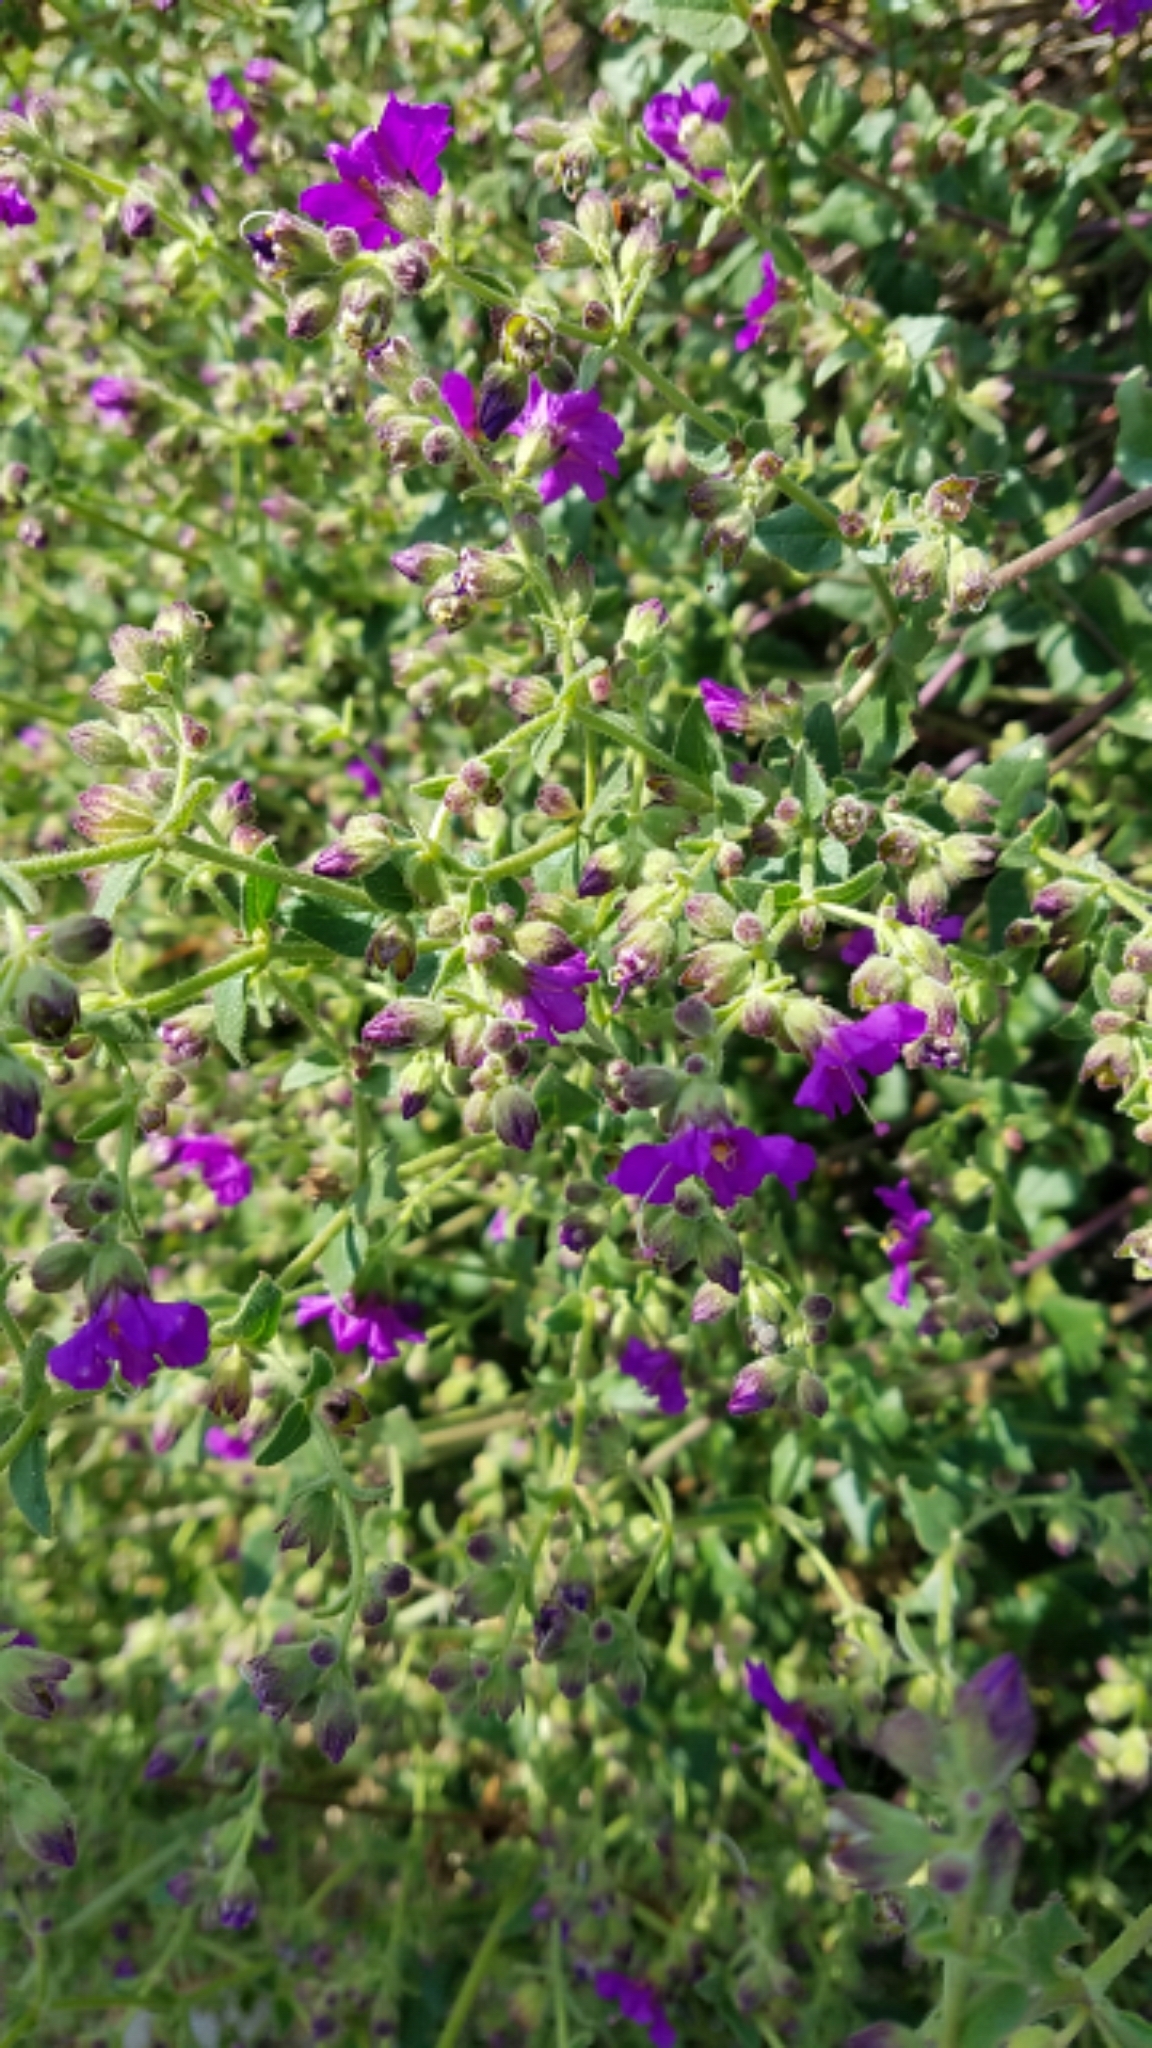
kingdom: Plantae
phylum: Tracheophyta
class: Magnoliopsida
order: Caryophyllales
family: Nyctaginaceae
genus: Mirabilis
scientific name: Mirabilis laevis
